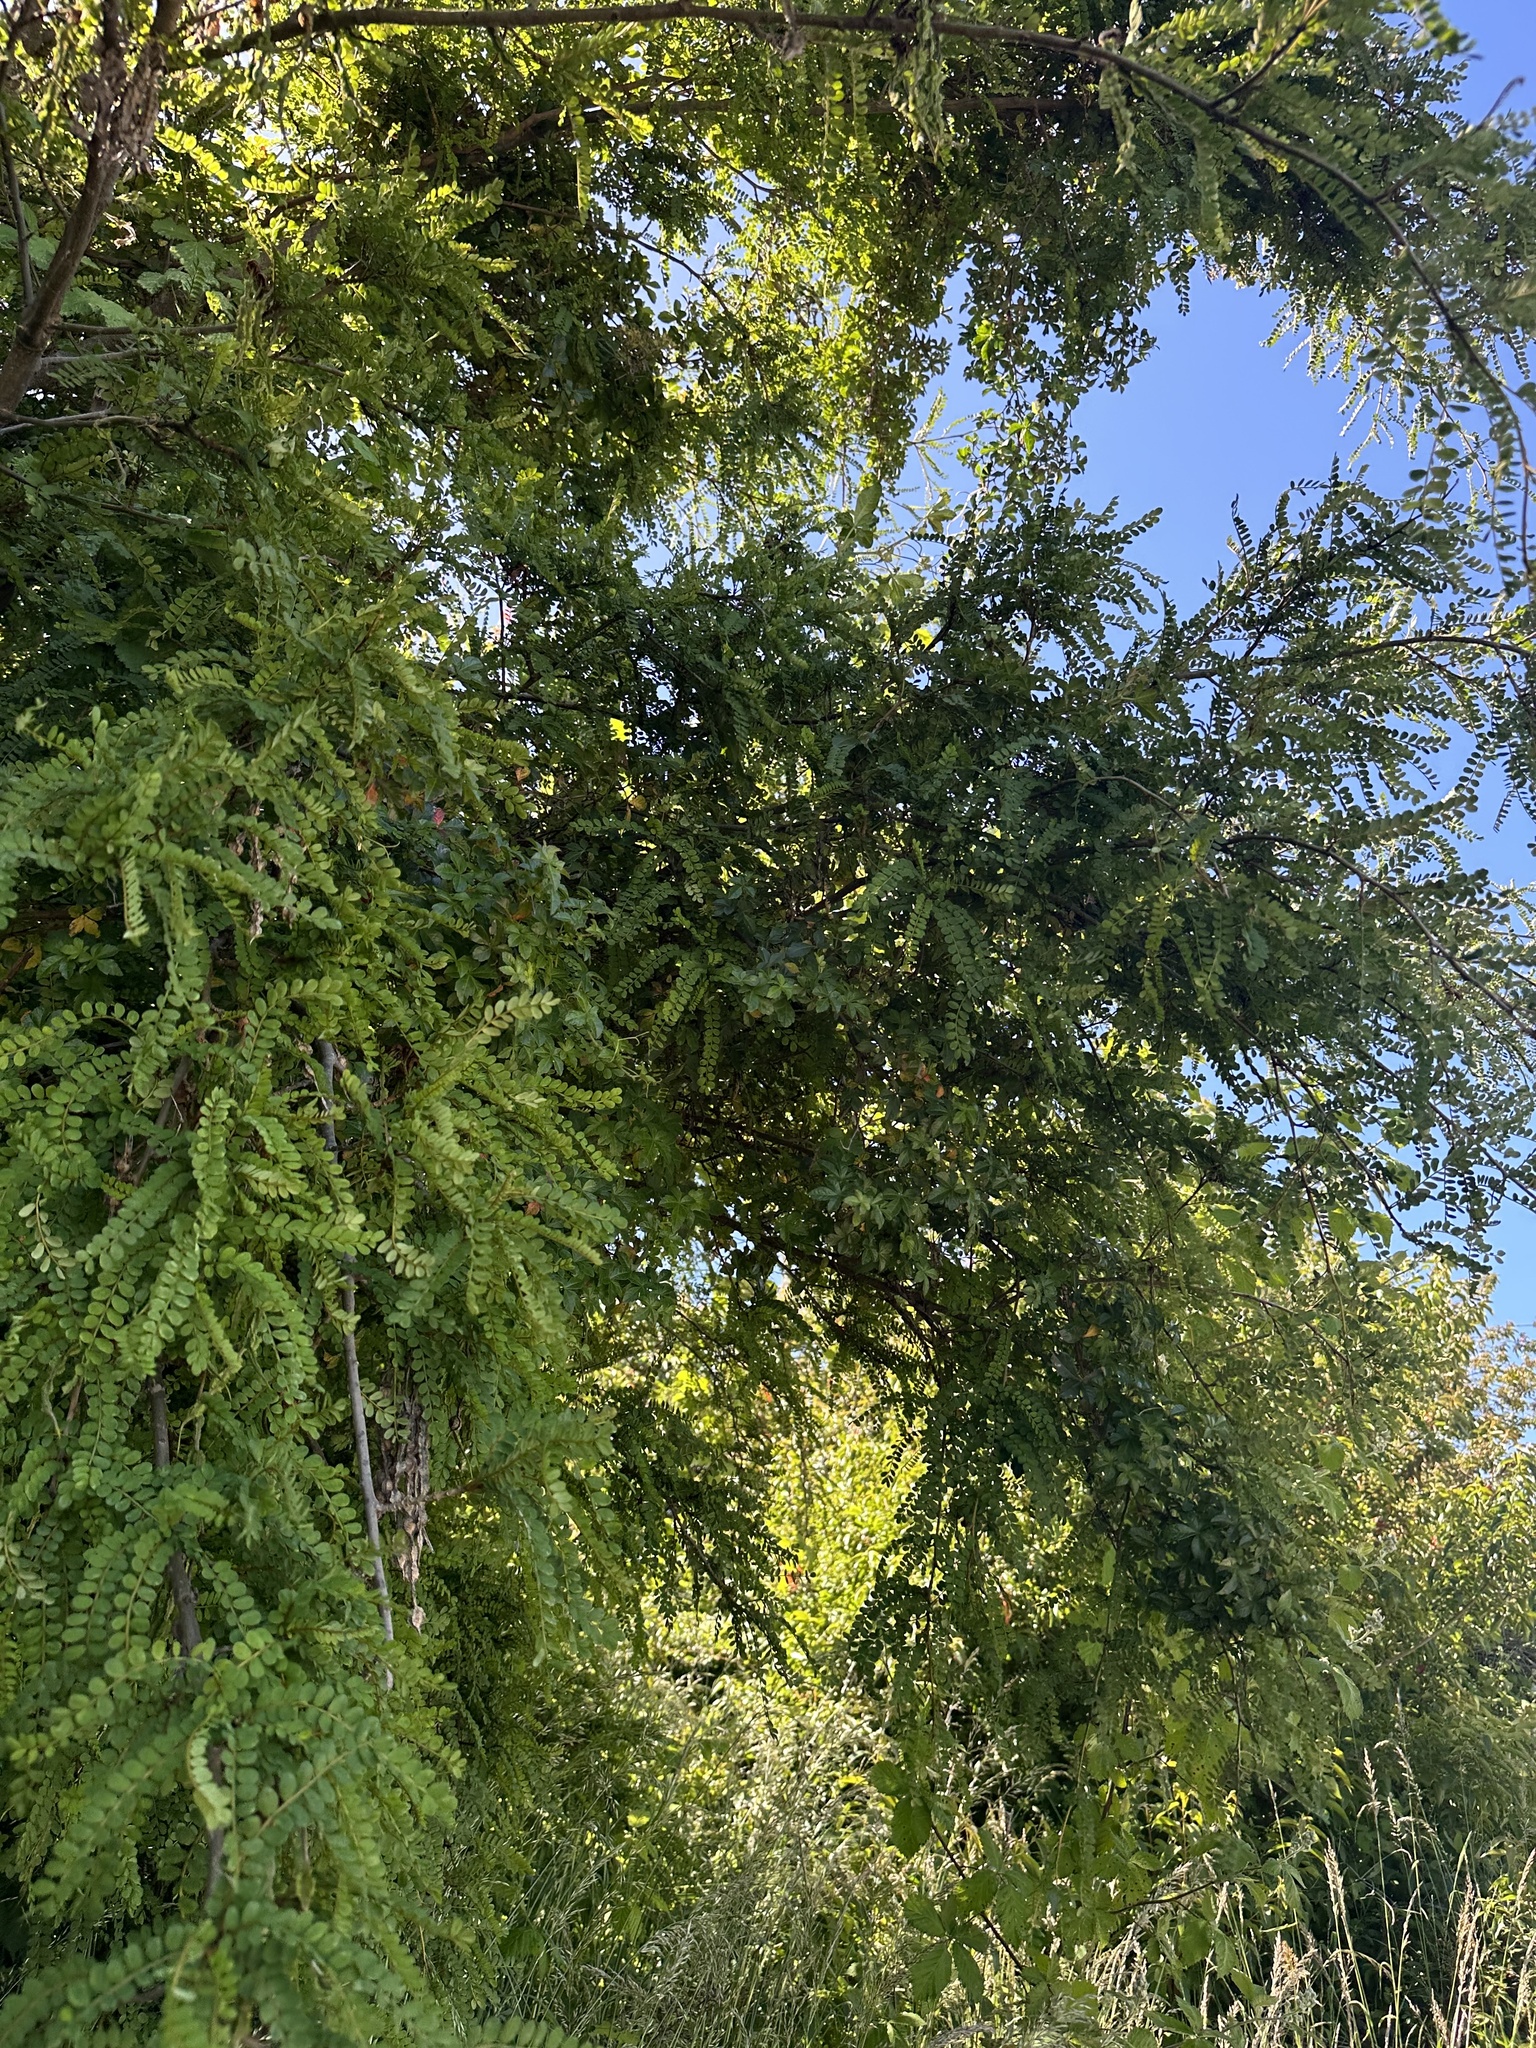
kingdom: Plantae
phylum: Tracheophyta
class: Magnoliopsida
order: Fabales
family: Fabaceae
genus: Sophora
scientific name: Sophora cassioides
